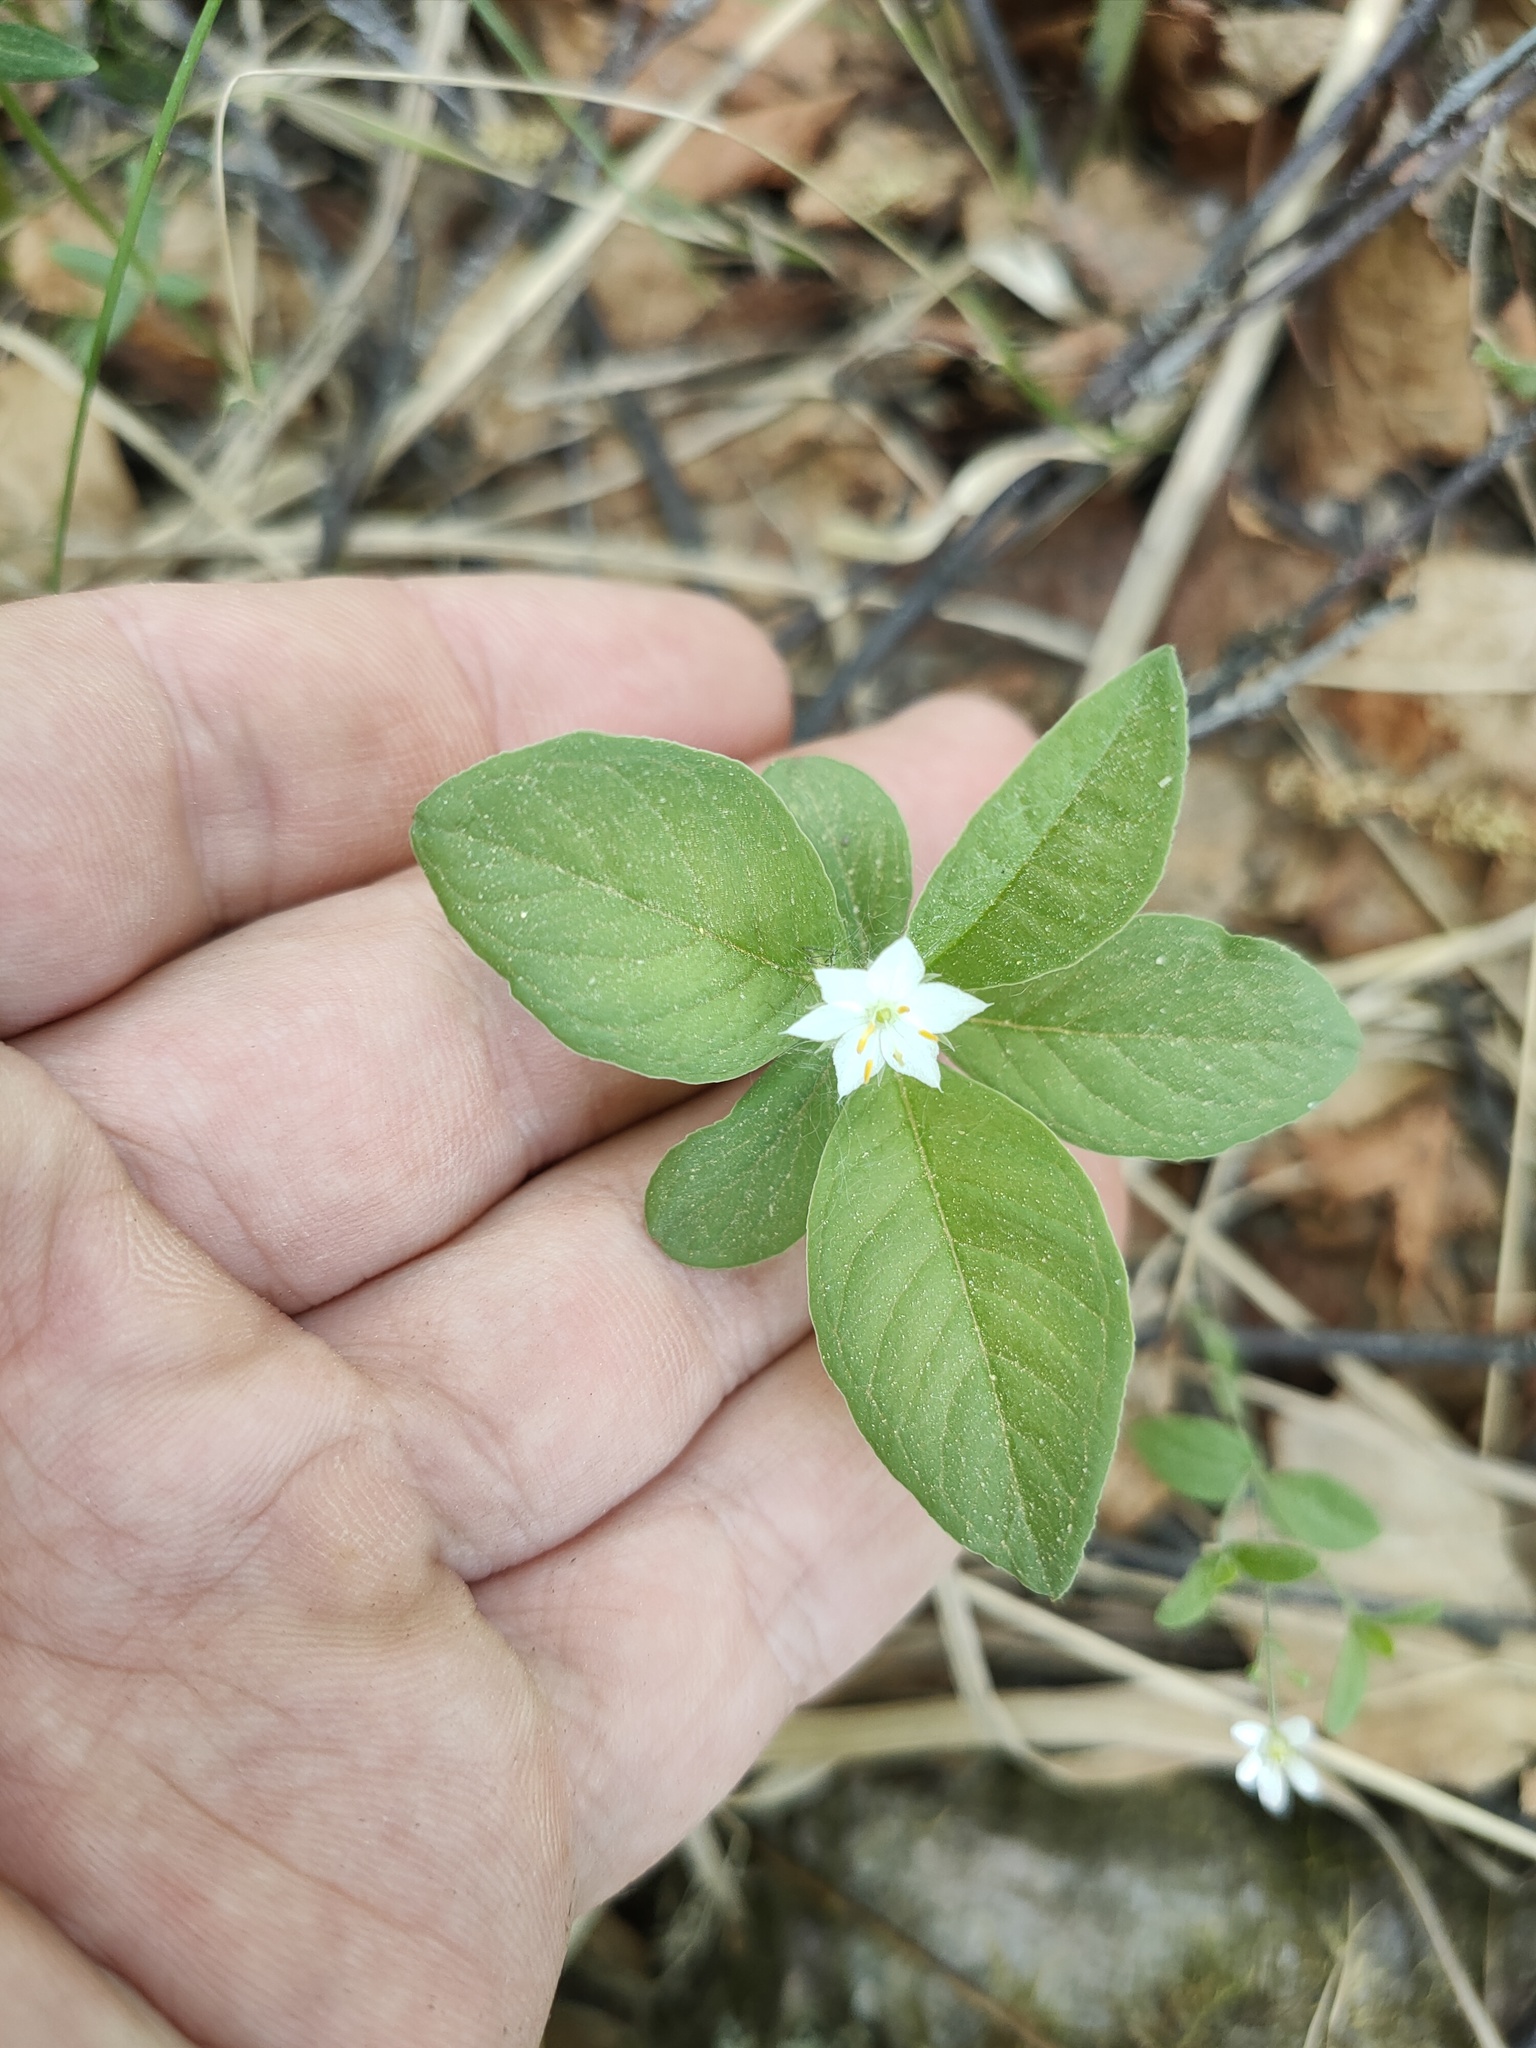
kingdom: Plantae
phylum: Tracheophyta
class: Magnoliopsida
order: Ericales
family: Primulaceae
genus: Lysimachia
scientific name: Lysimachia europaea
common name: Arctic starflower
